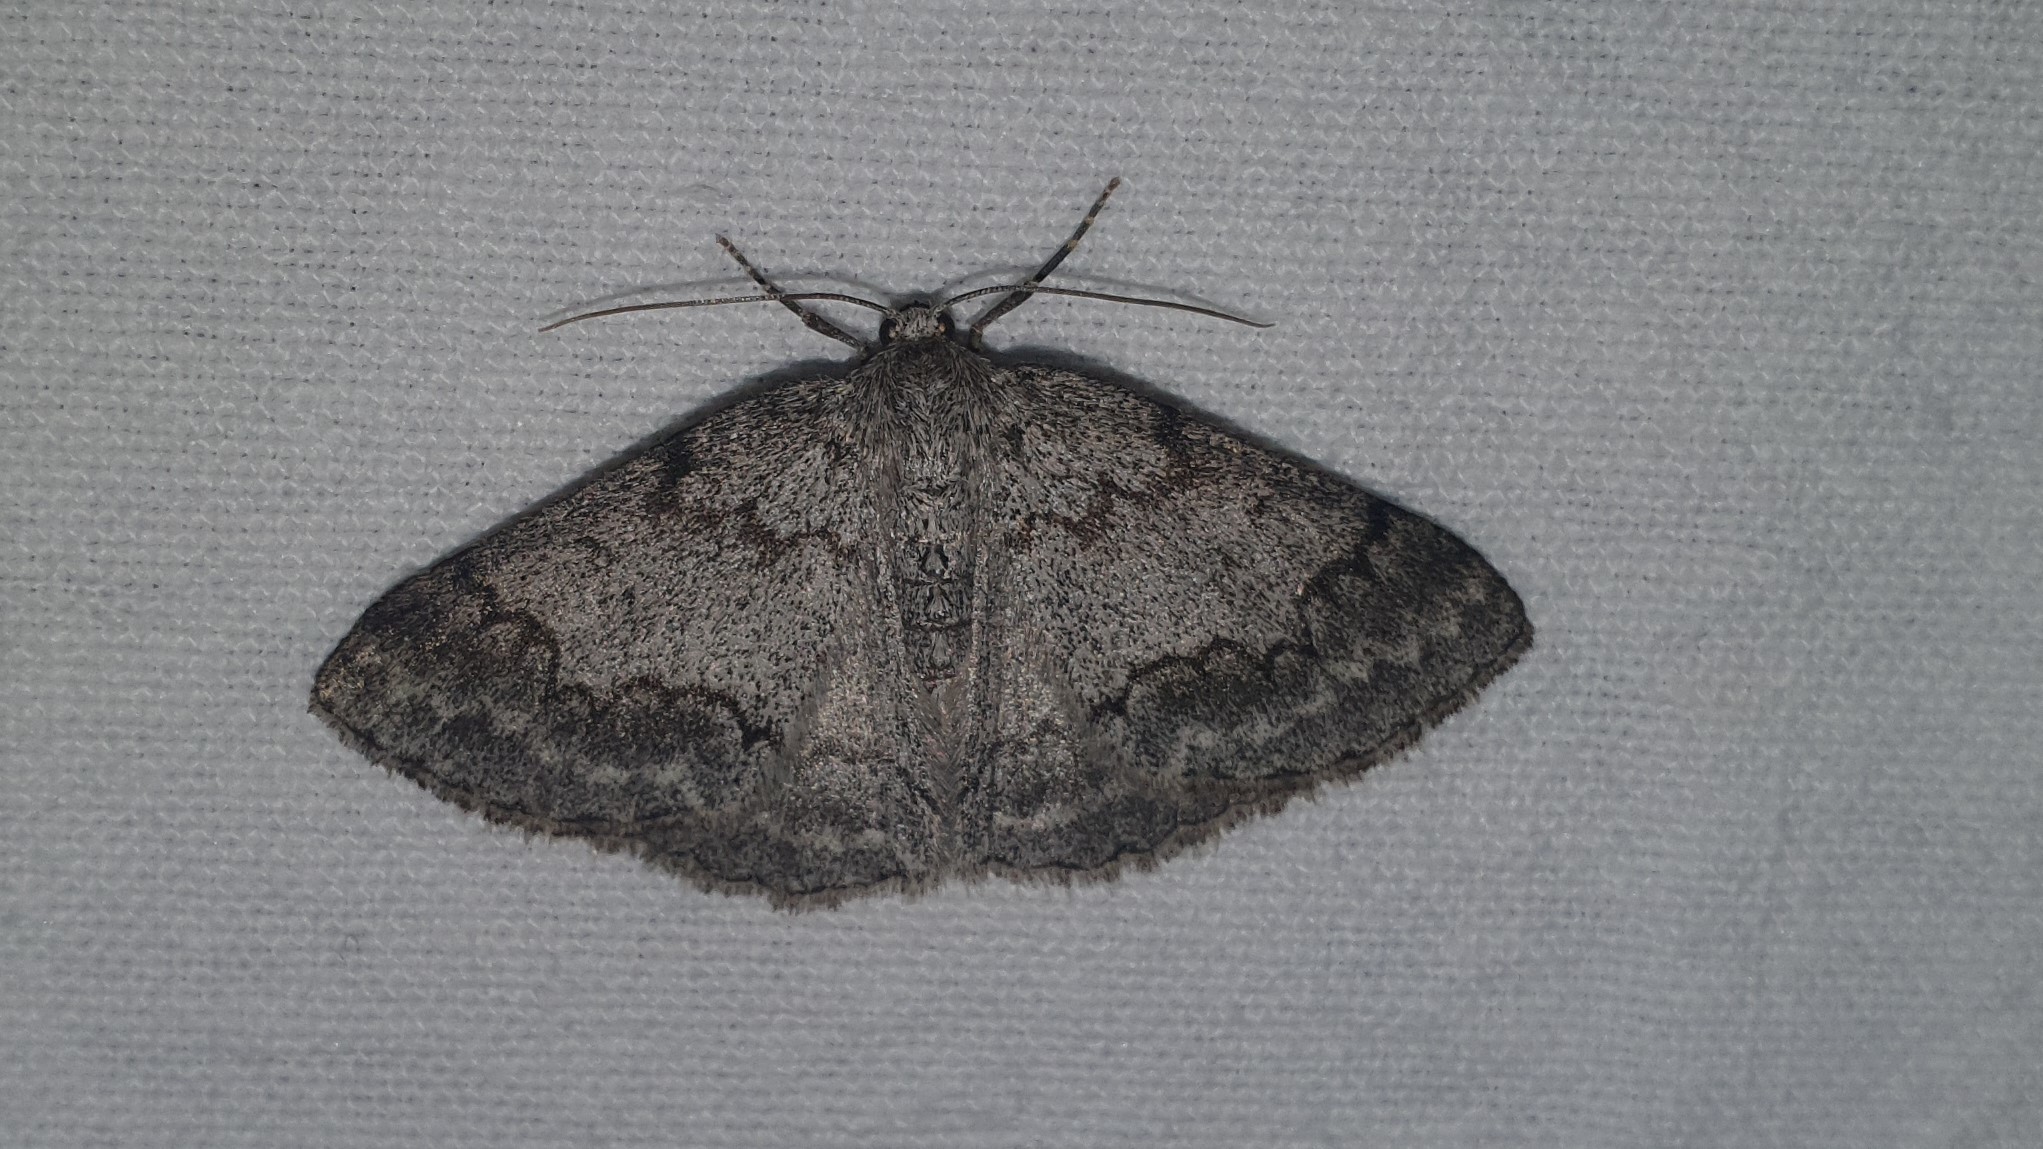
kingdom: Animalia
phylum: Arthropoda
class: Insecta
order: Lepidoptera
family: Geometridae
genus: Pseudoterpna
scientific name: Pseudoterpna coronillaria
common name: Jersey emerald
